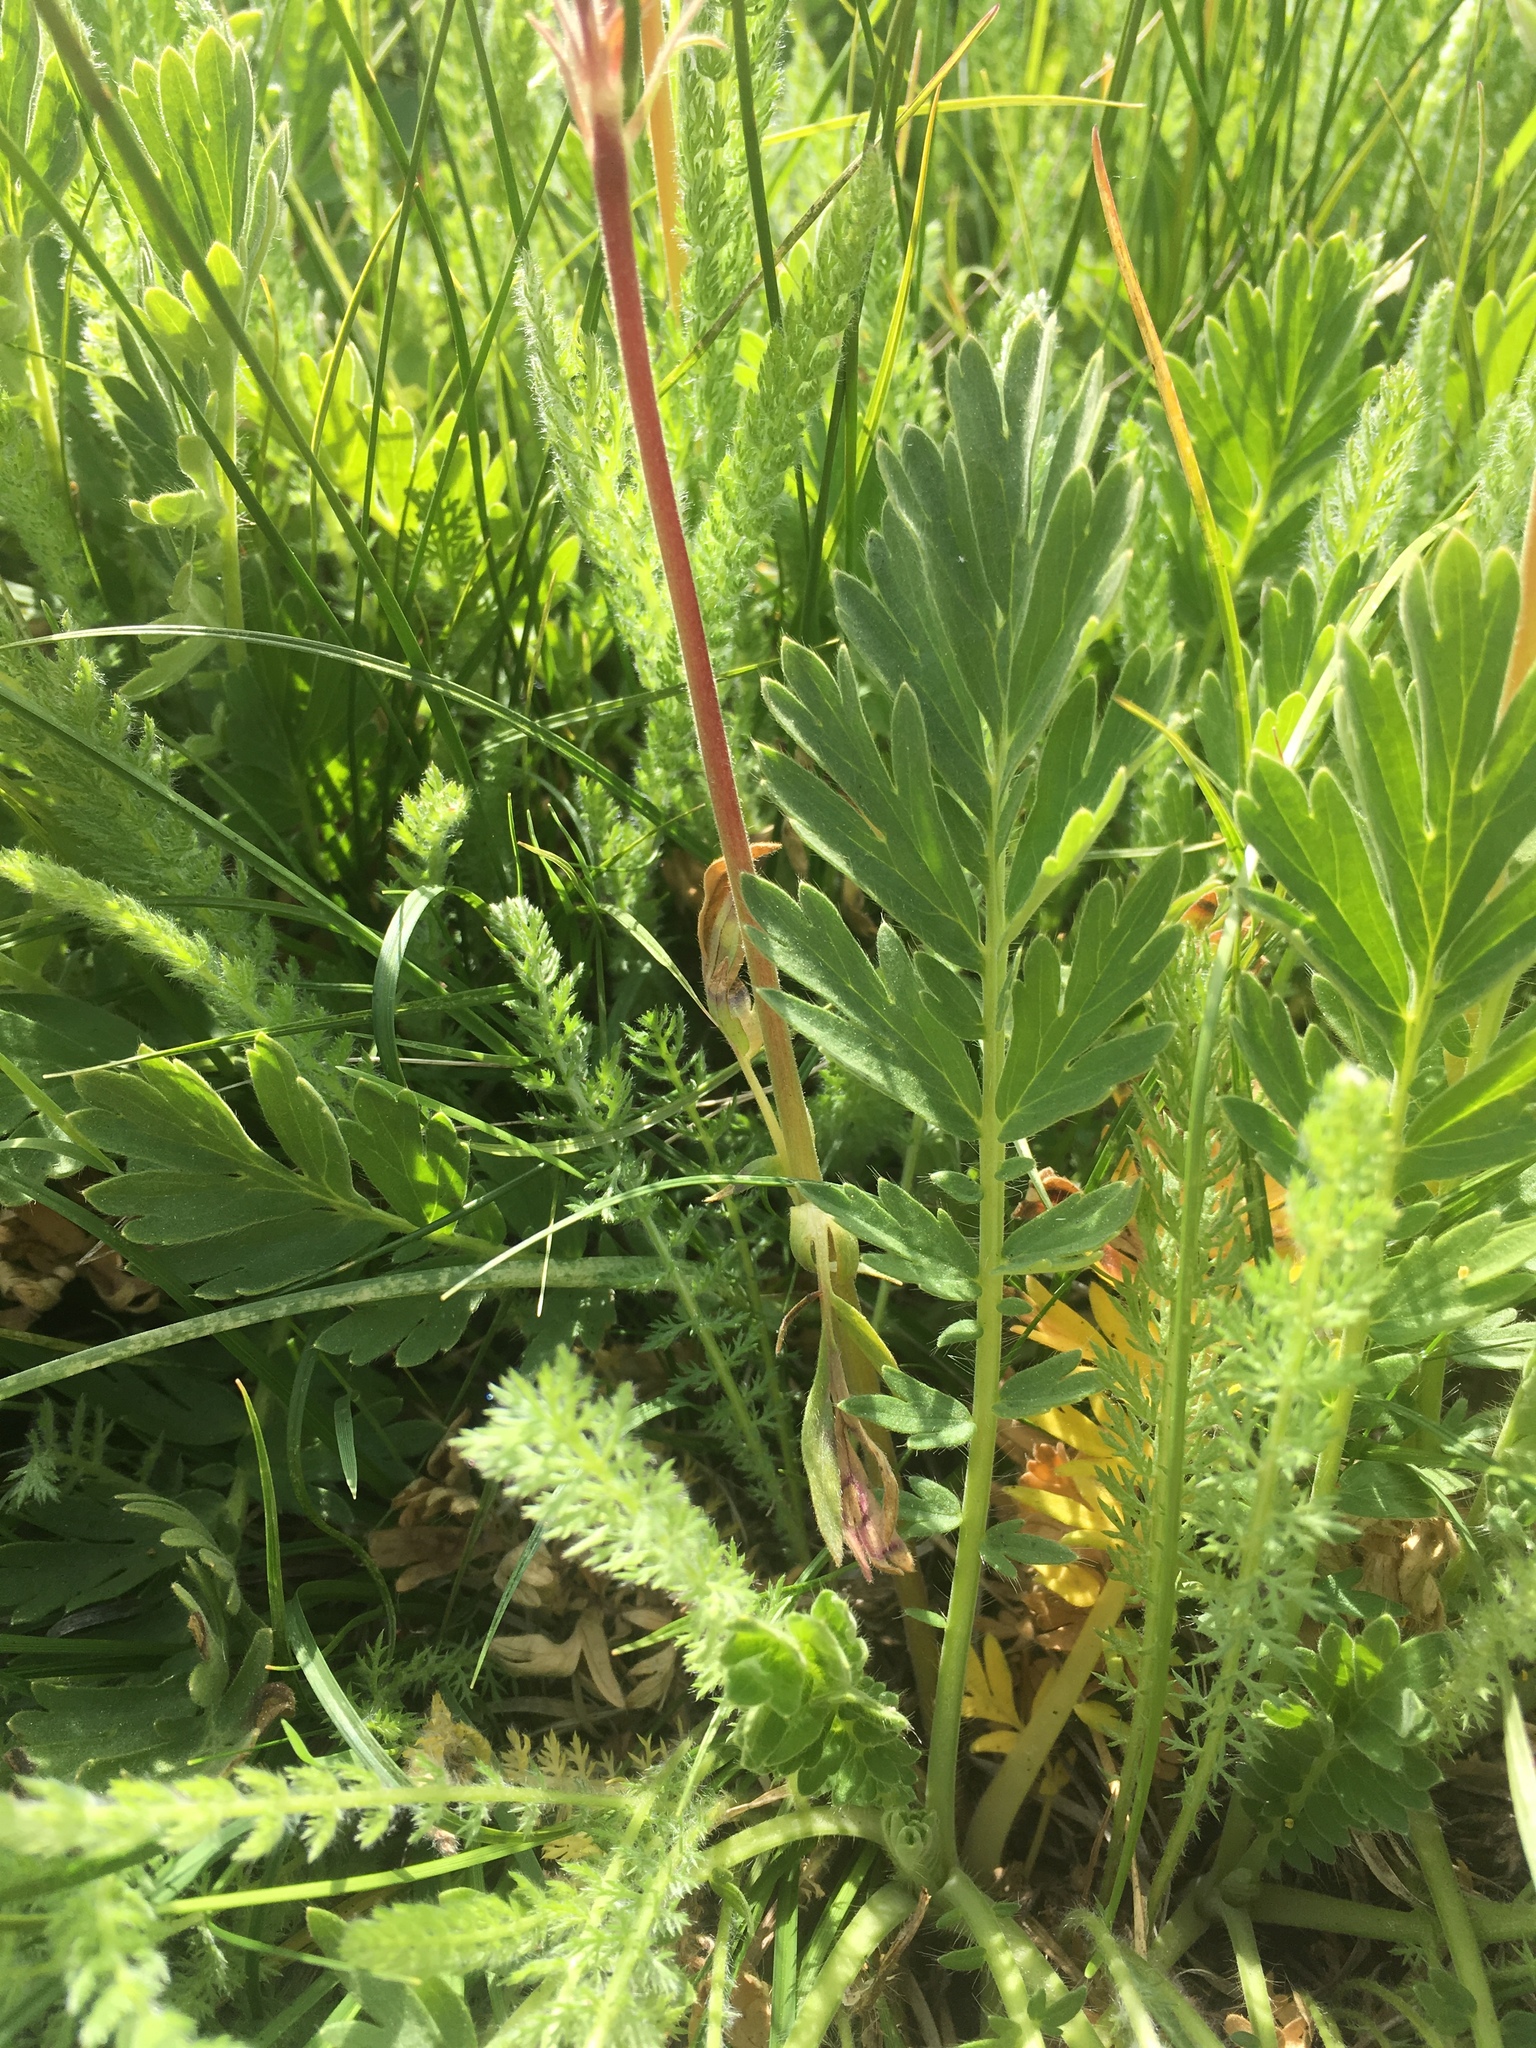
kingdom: Plantae
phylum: Tracheophyta
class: Magnoliopsida
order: Rosales
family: Rosaceae
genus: Geum
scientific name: Geum triflorum
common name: Old man's whiskers
